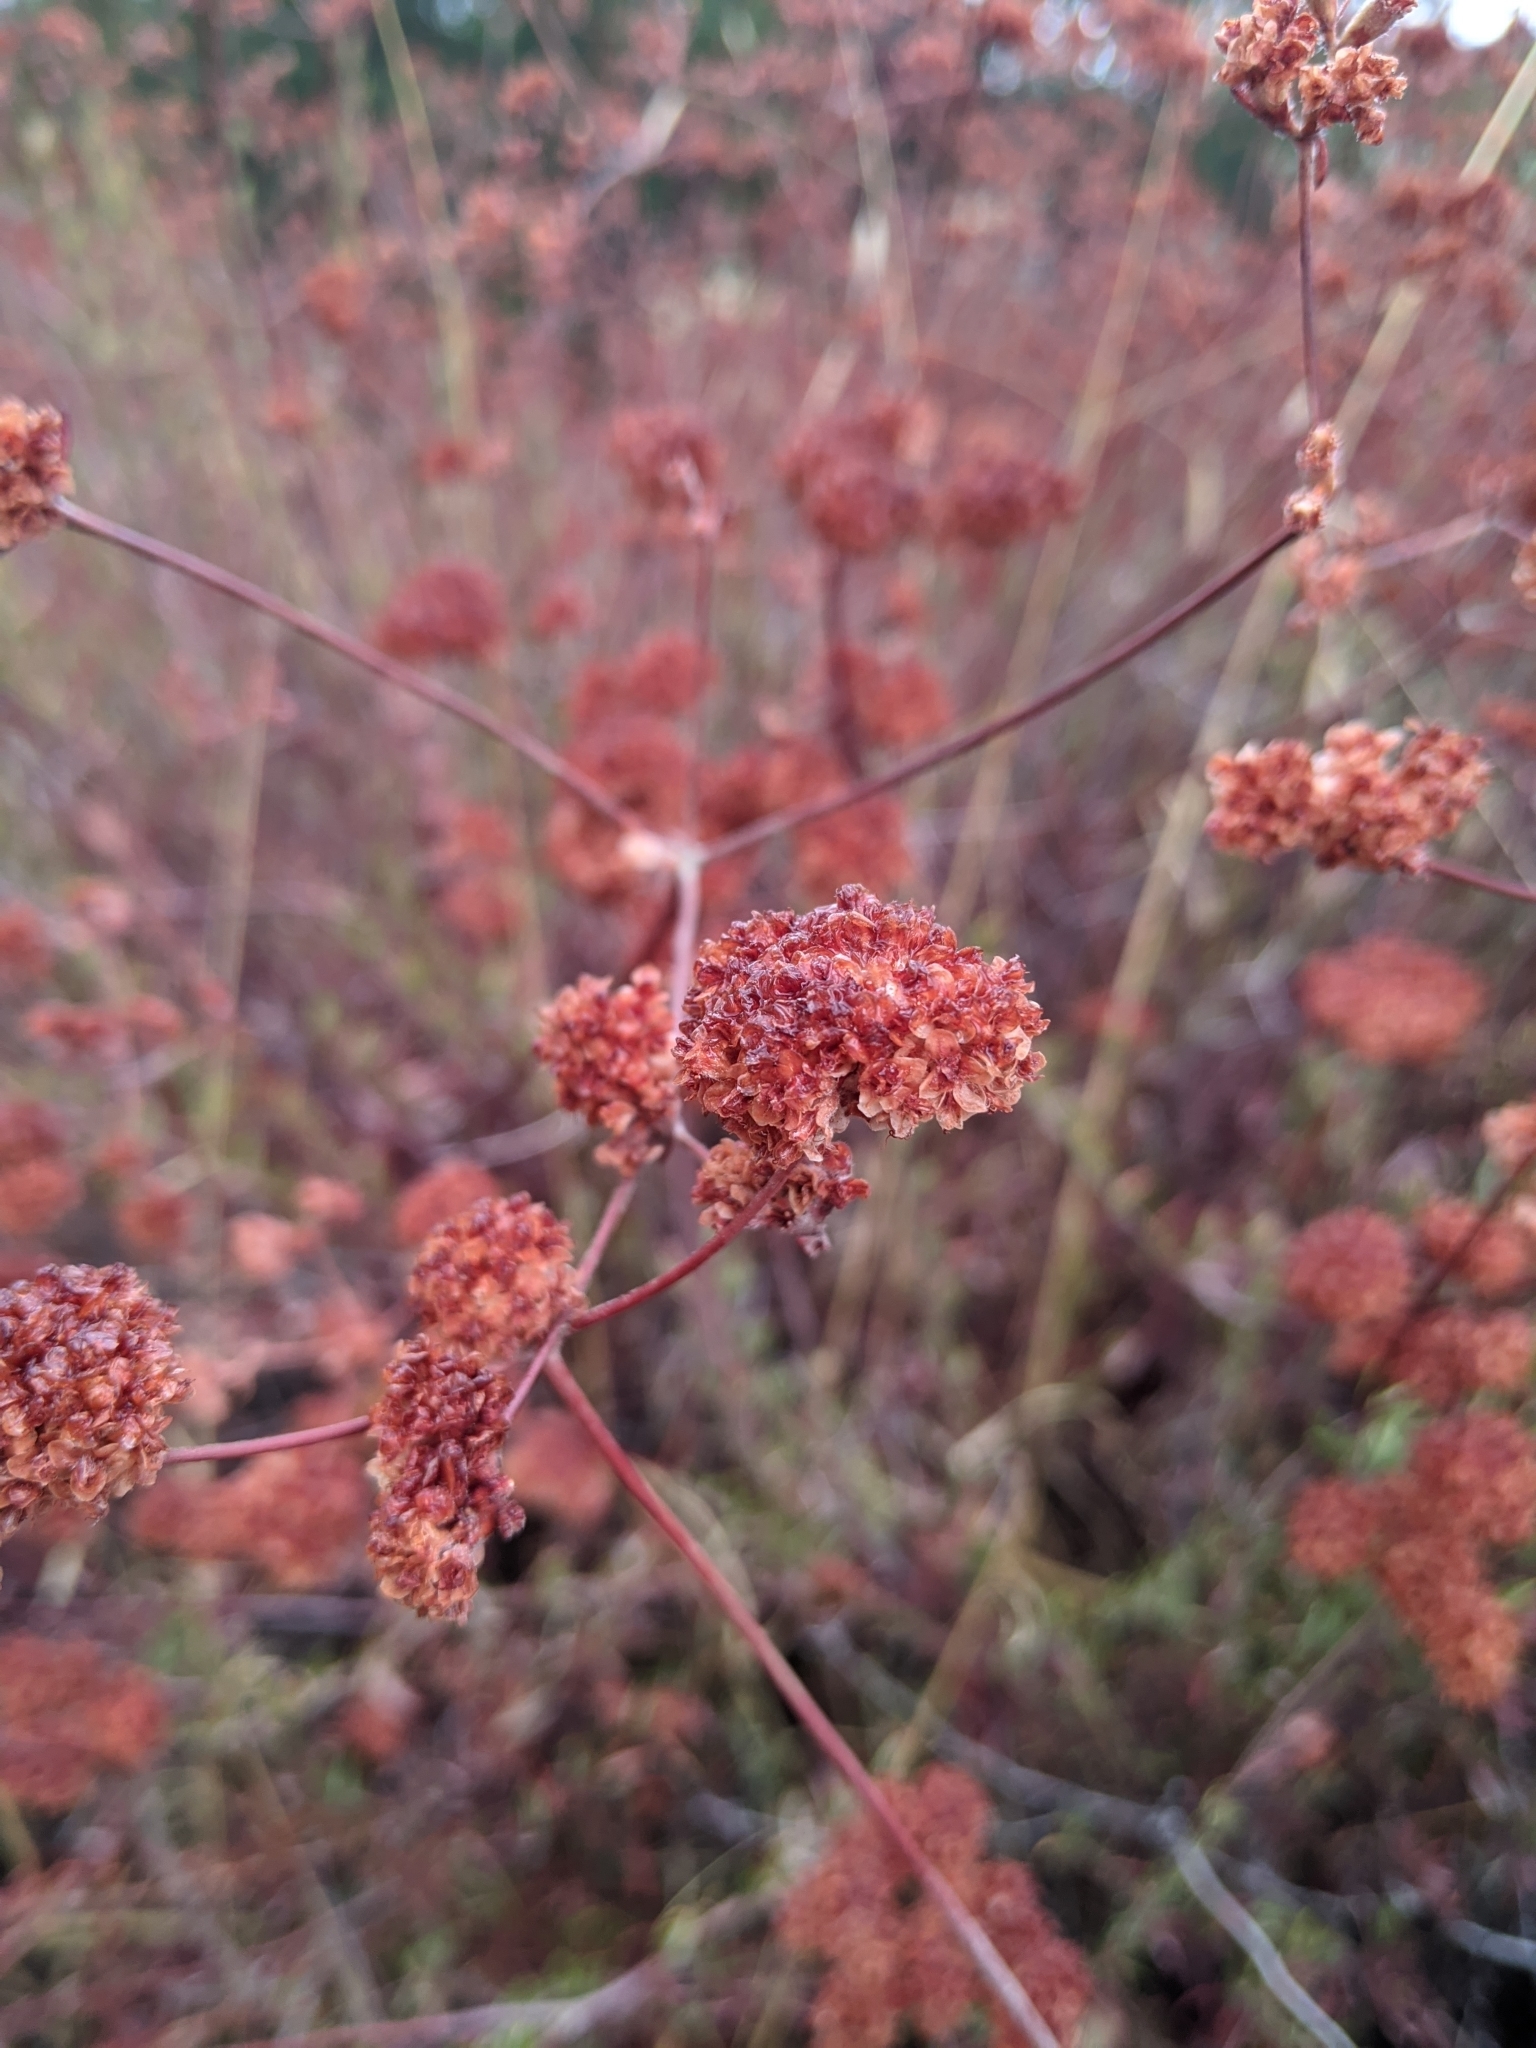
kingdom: Plantae
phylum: Tracheophyta
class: Magnoliopsida
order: Caryophyllales
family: Polygonaceae
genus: Eriogonum
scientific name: Eriogonum fasciculatum
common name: California wild buckwheat
